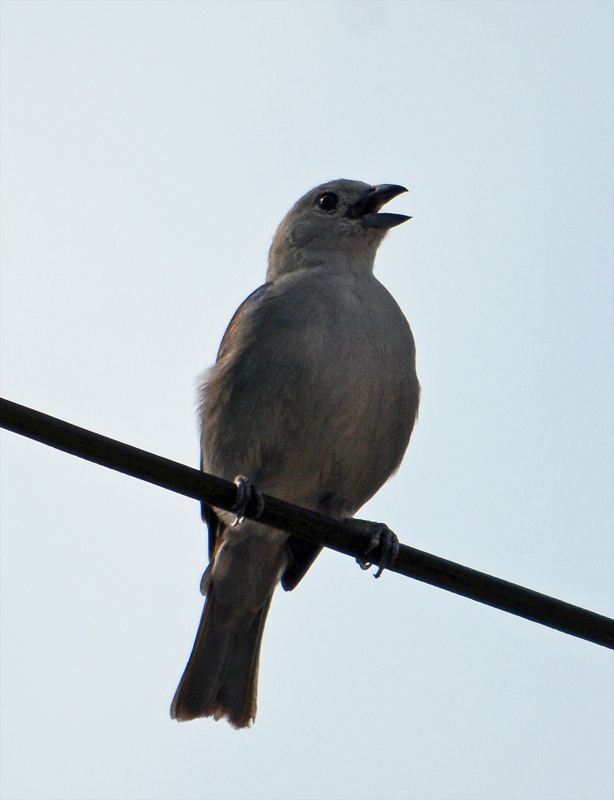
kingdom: Animalia
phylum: Chordata
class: Aves
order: Passeriformes
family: Thraupidae
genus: Thraupis
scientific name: Thraupis episcopus
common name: Blue-grey tanager
